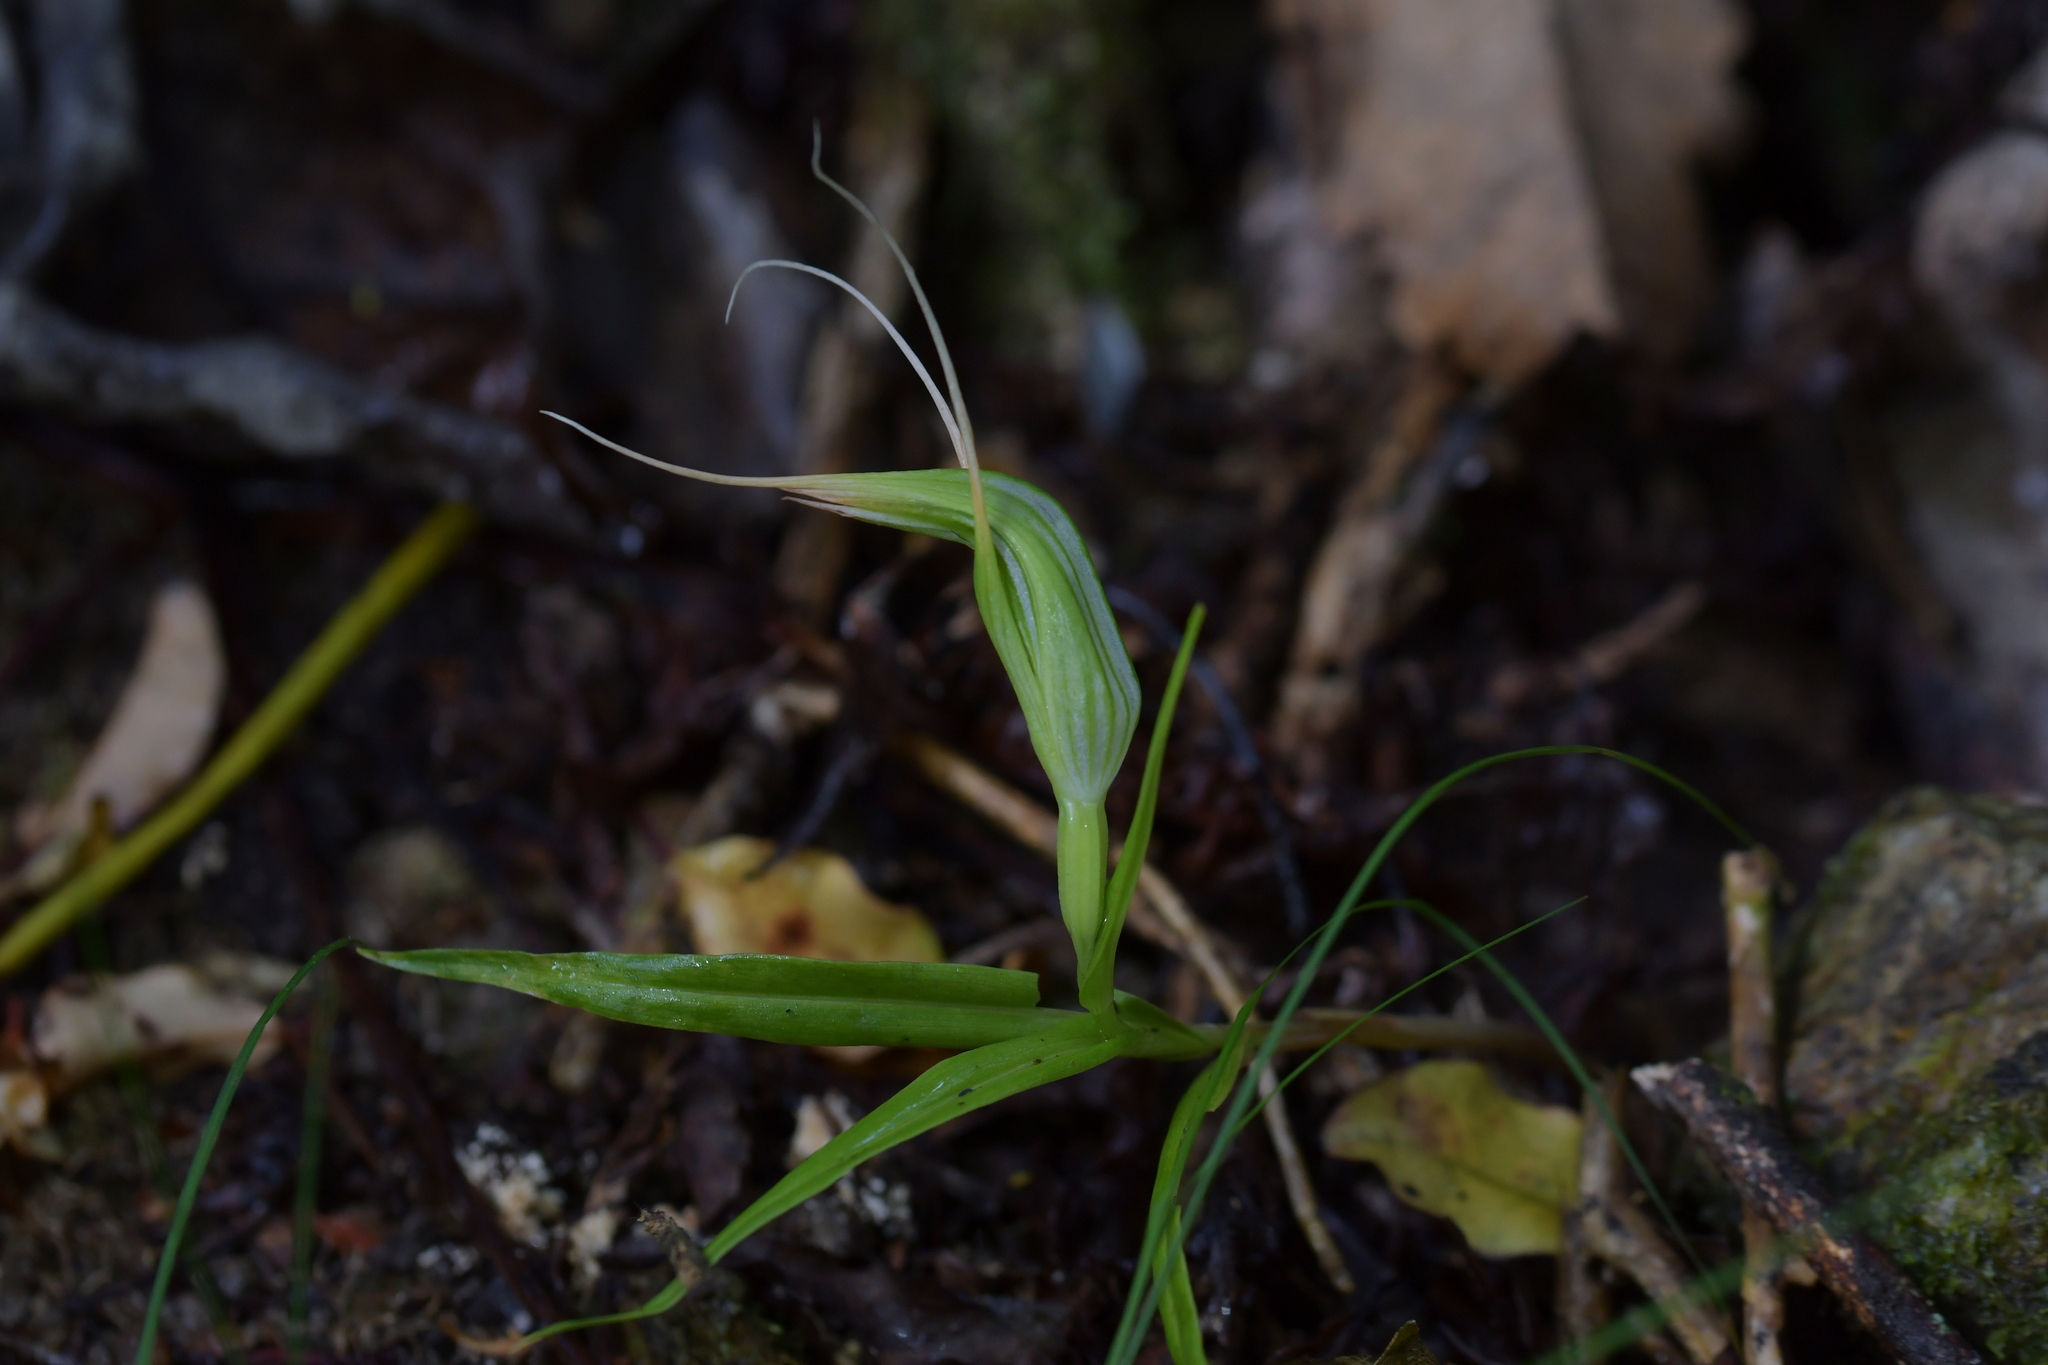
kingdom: Plantae
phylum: Tracheophyta
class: Liliopsida
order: Asparagales
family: Orchidaceae
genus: Pterostylis
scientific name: Pterostylis banksii
